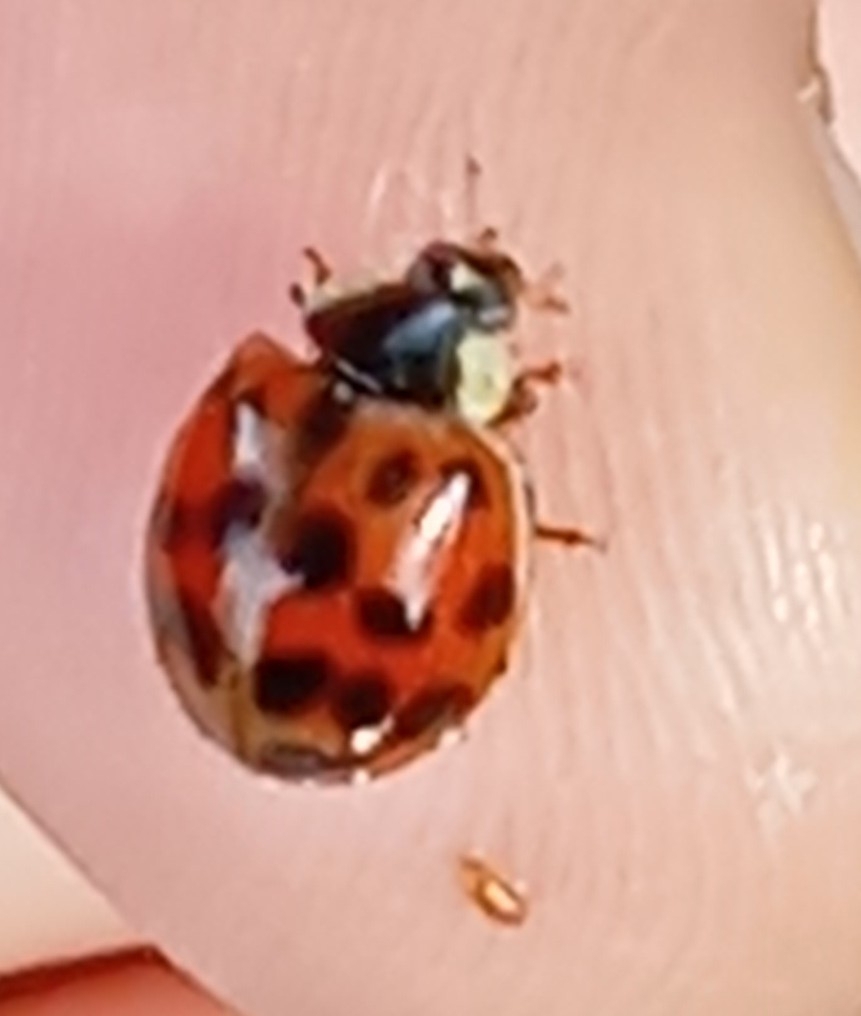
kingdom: Animalia
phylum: Arthropoda
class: Insecta
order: Coleoptera
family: Coccinellidae
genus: Harmonia
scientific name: Harmonia axyridis
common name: Harlequin ladybird
